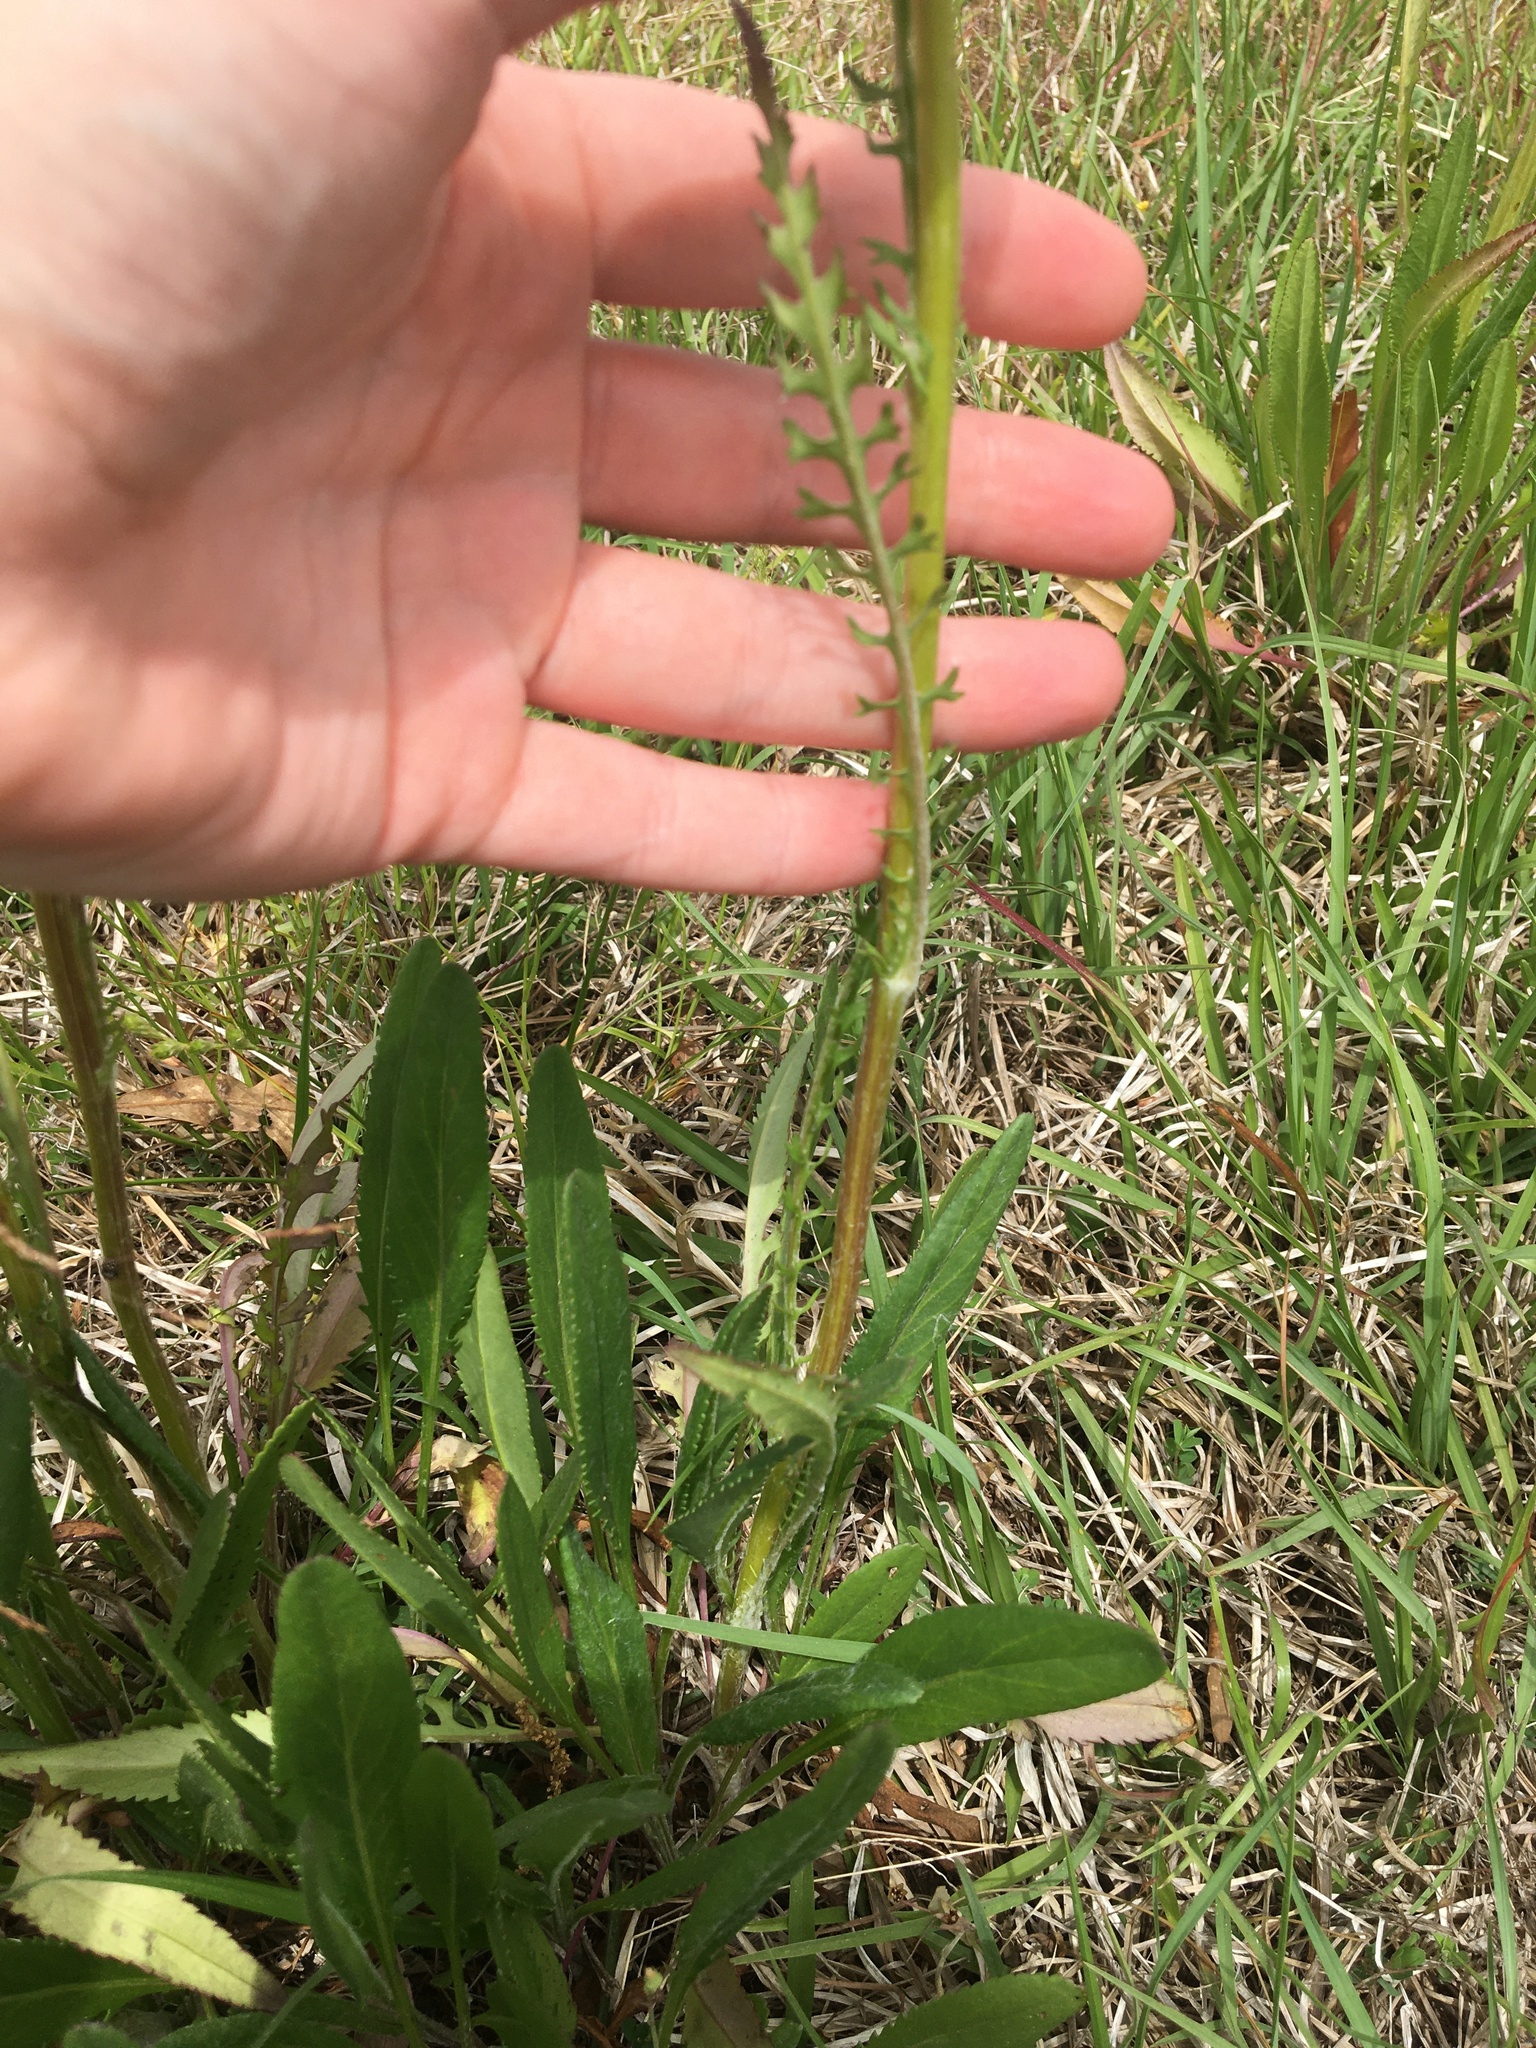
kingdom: Plantae
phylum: Tracheophyta
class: Magnoliopsida
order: Asterales
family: Asteraceae
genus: Packera
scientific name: Packera anonyma
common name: Small ragwort
